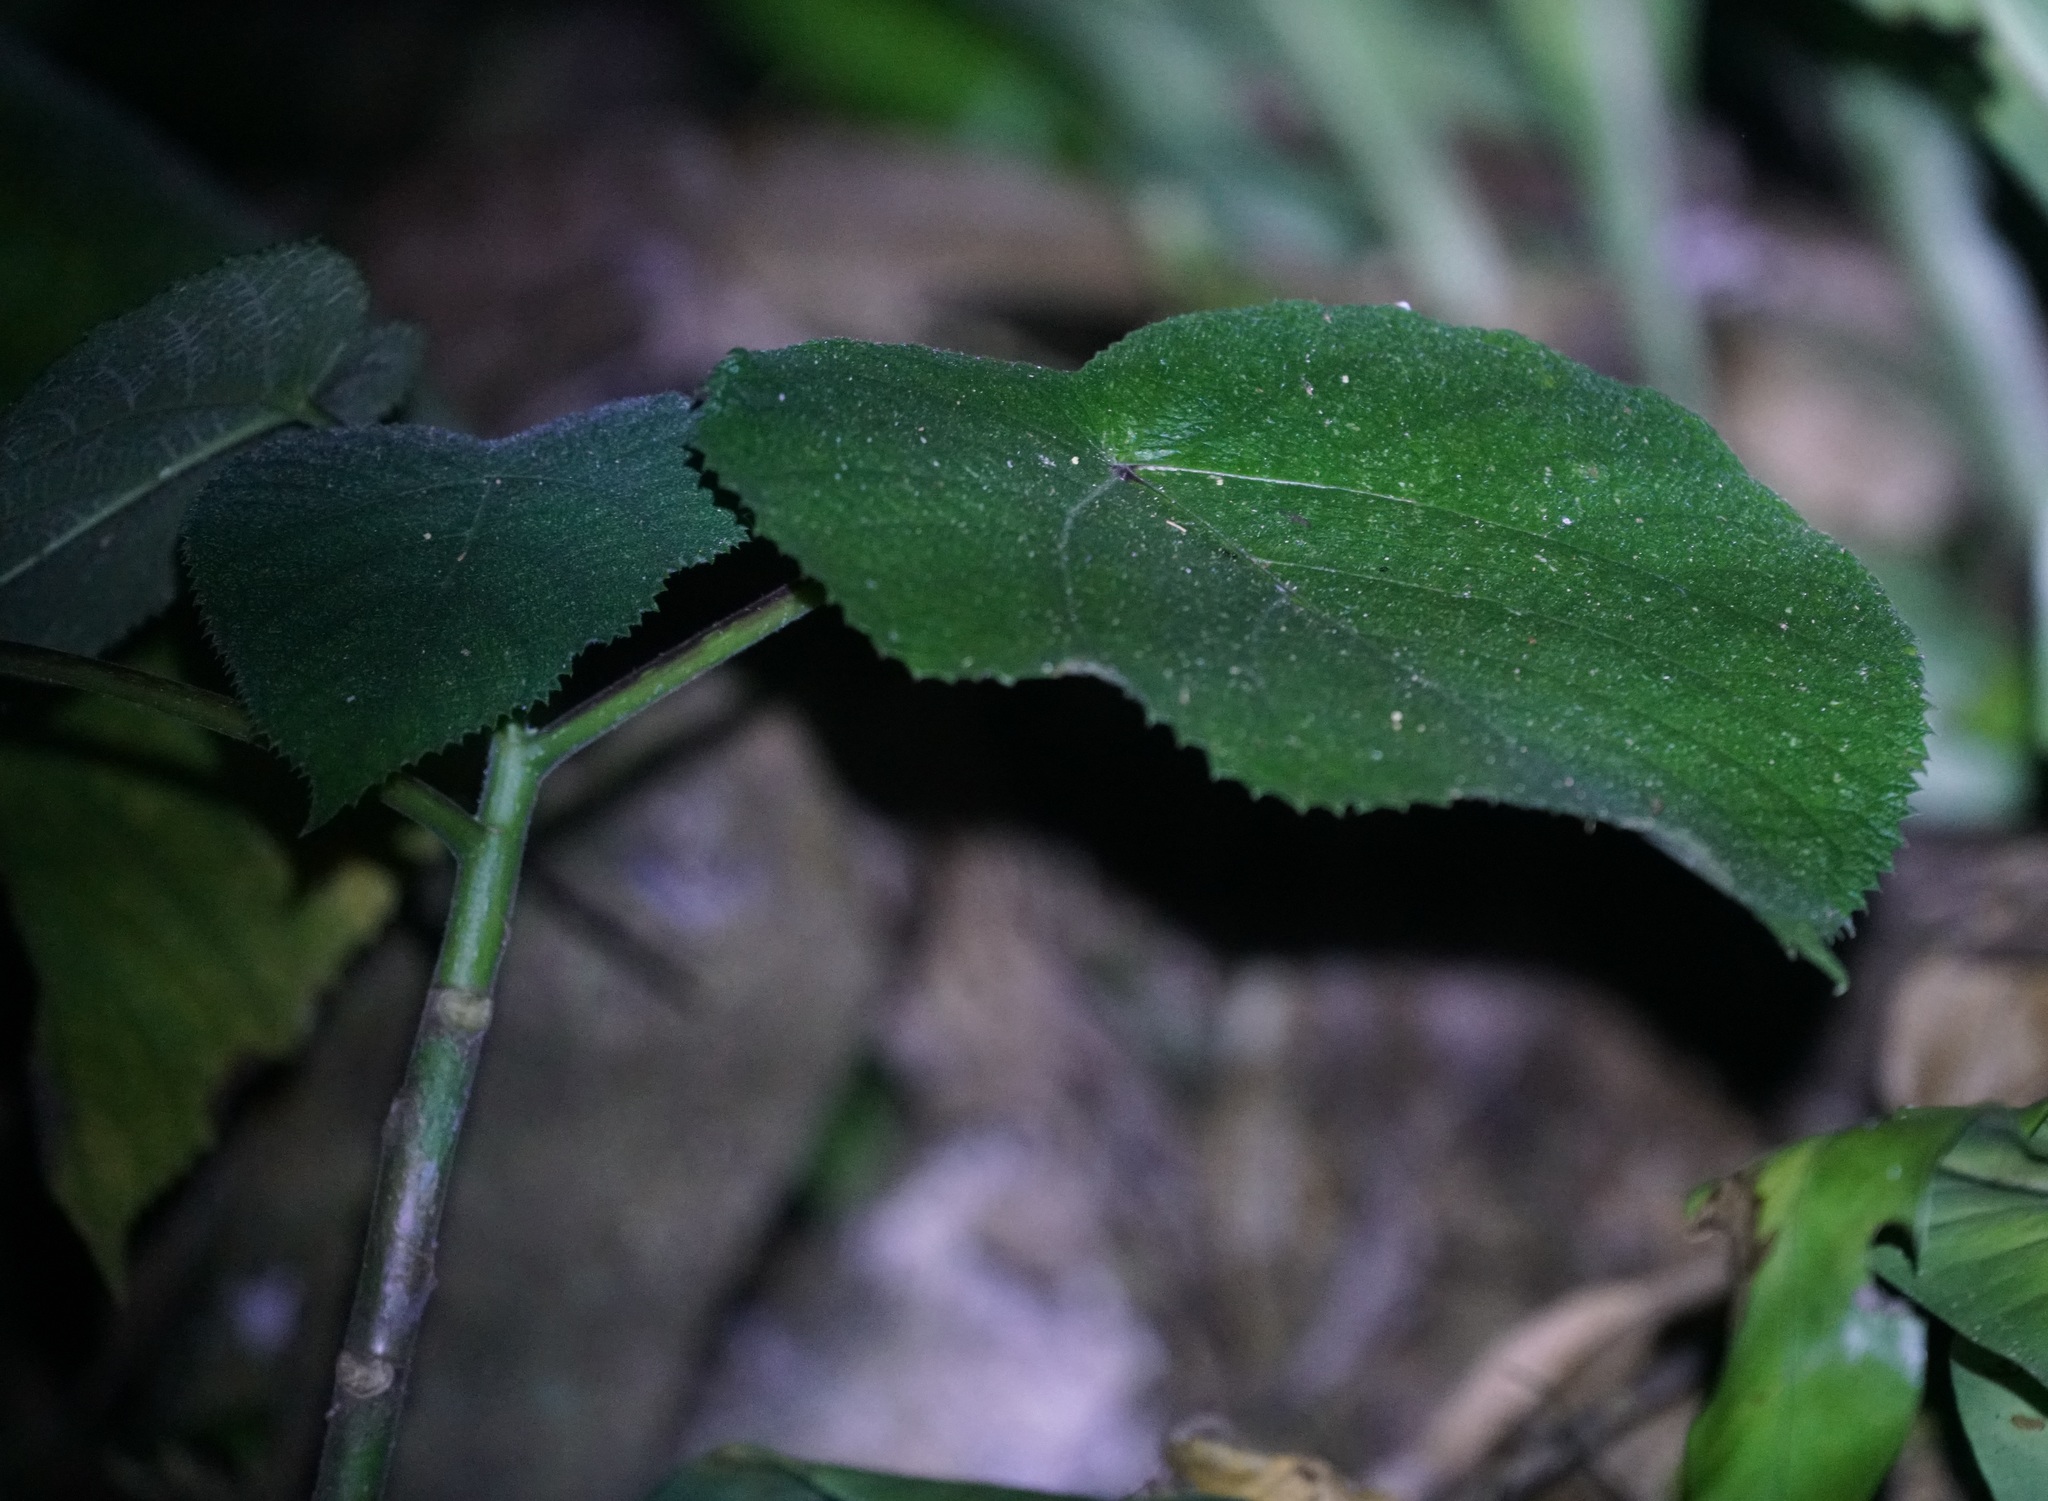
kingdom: Plantae
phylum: Tracheophyta
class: Magnoliopsida
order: Rosales
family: Urticaceae
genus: Dendrocnide
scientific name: Dendrocnide moroides
